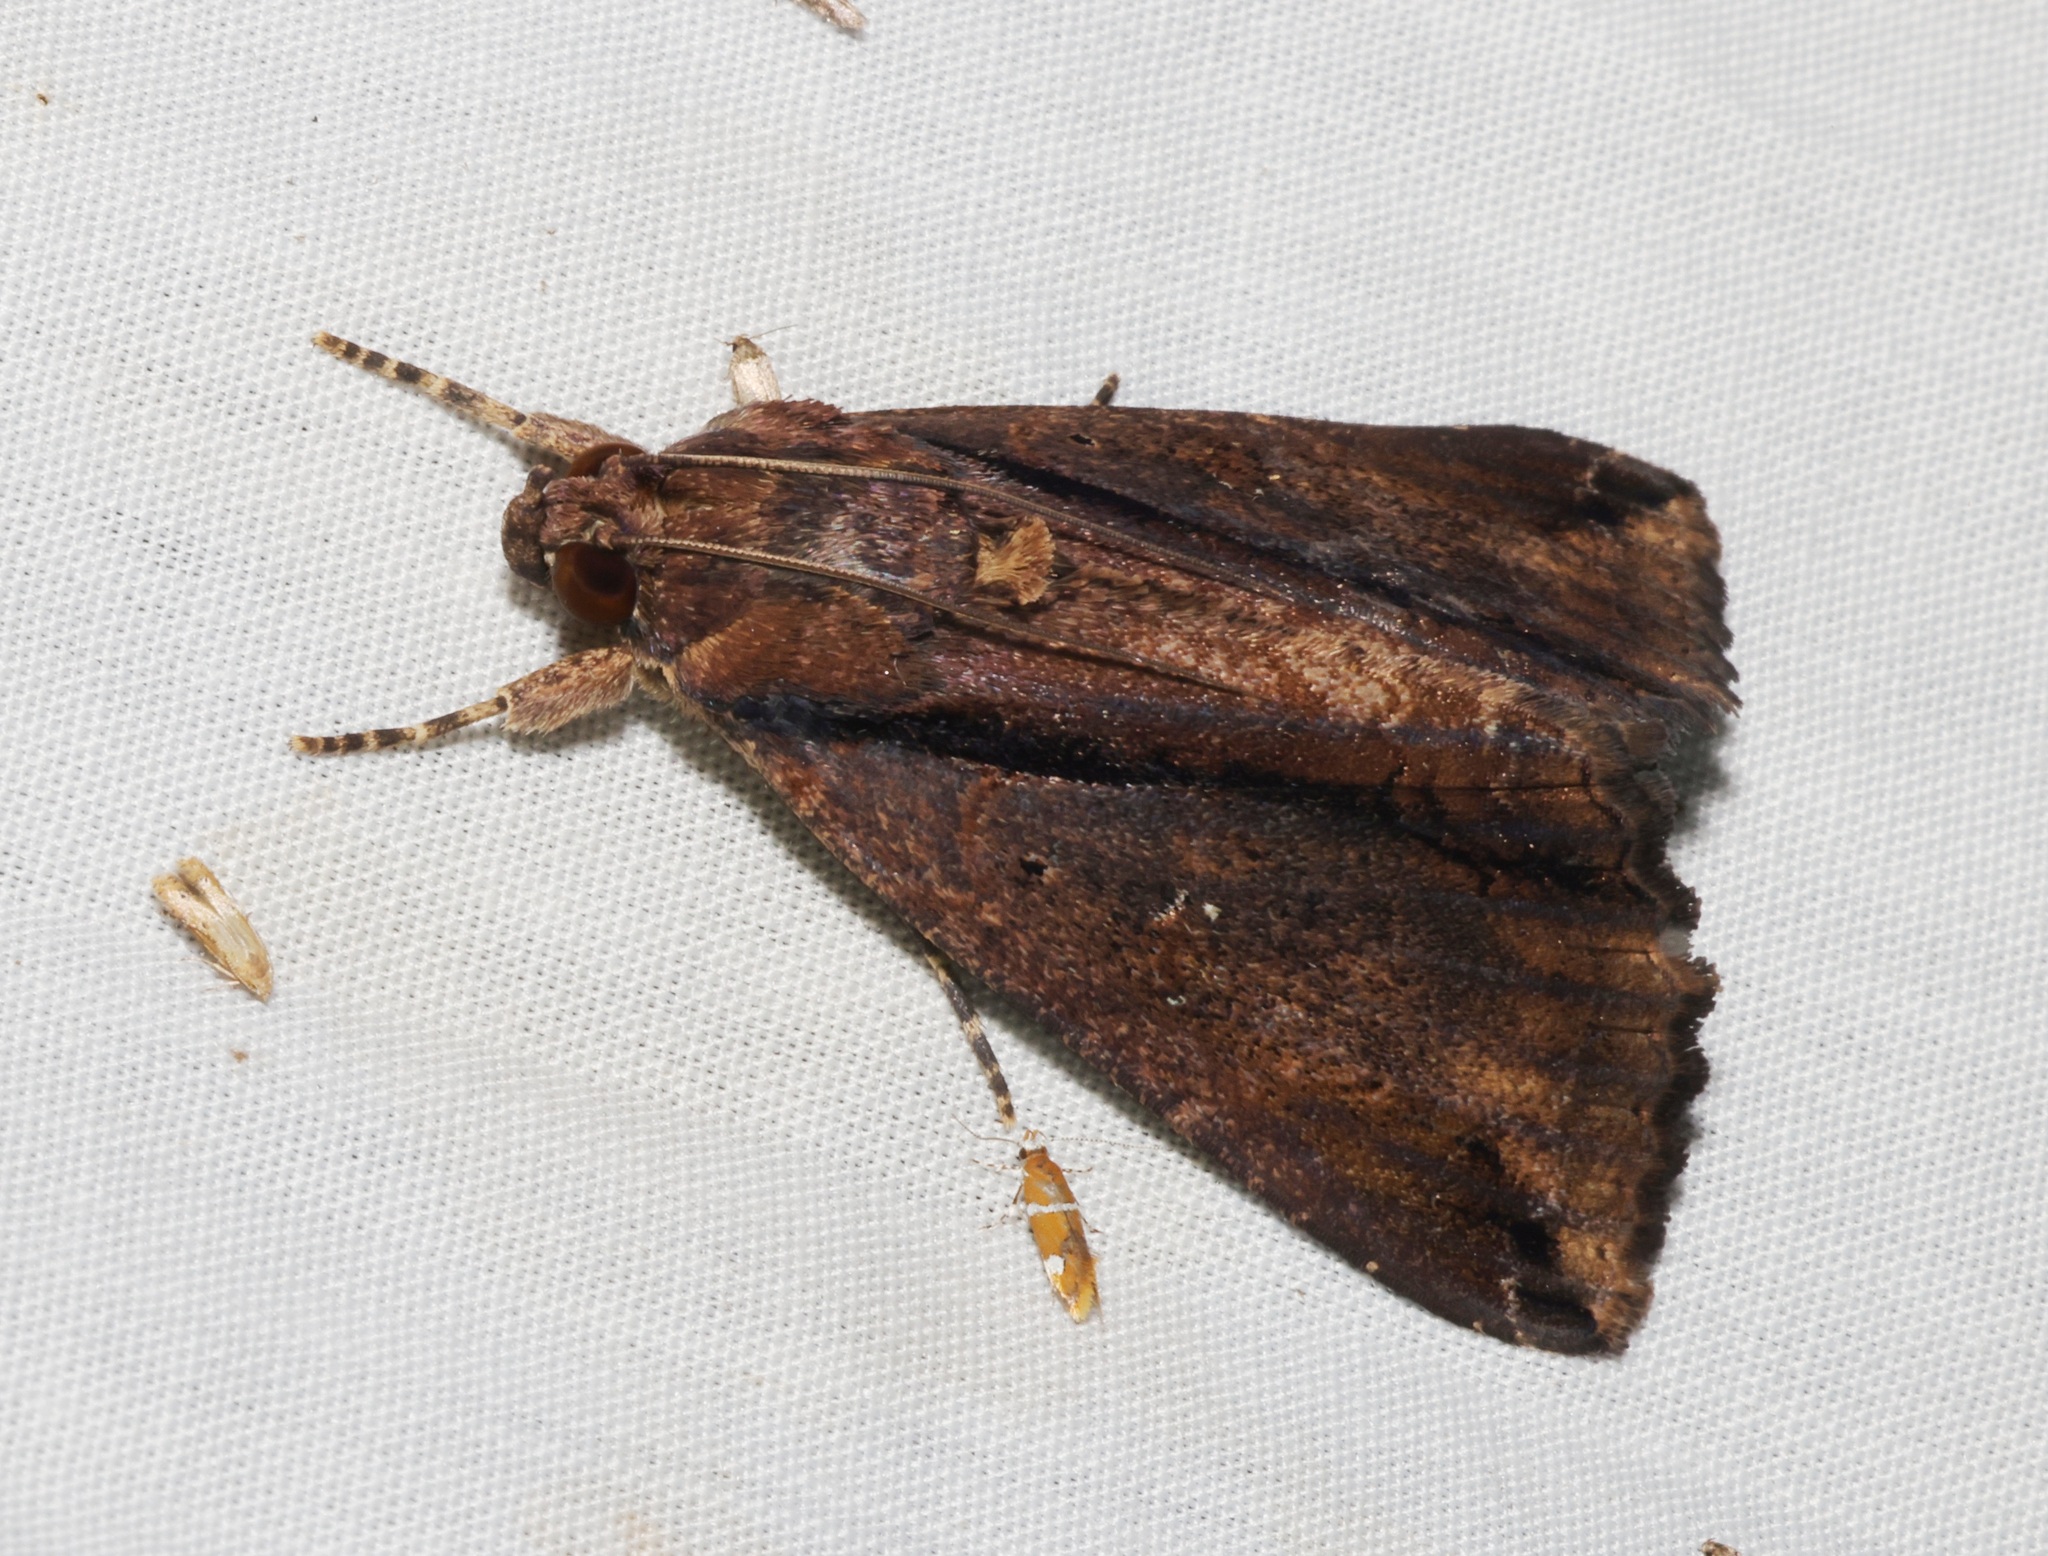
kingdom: Animalia
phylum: Arthropoda
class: Insecta
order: Lepidoptera
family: Erebidae
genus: Ercheia
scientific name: Ercheia cyllaria
